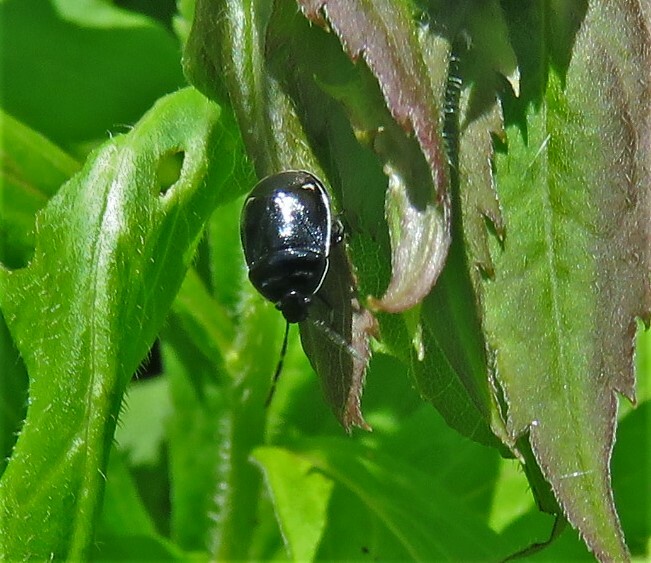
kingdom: Animalia
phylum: Arthropoda
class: Insecta
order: Hemiptera
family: Cydnidae
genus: Sehirus
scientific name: Sehirus cinctus
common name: White-margined burrower bug
